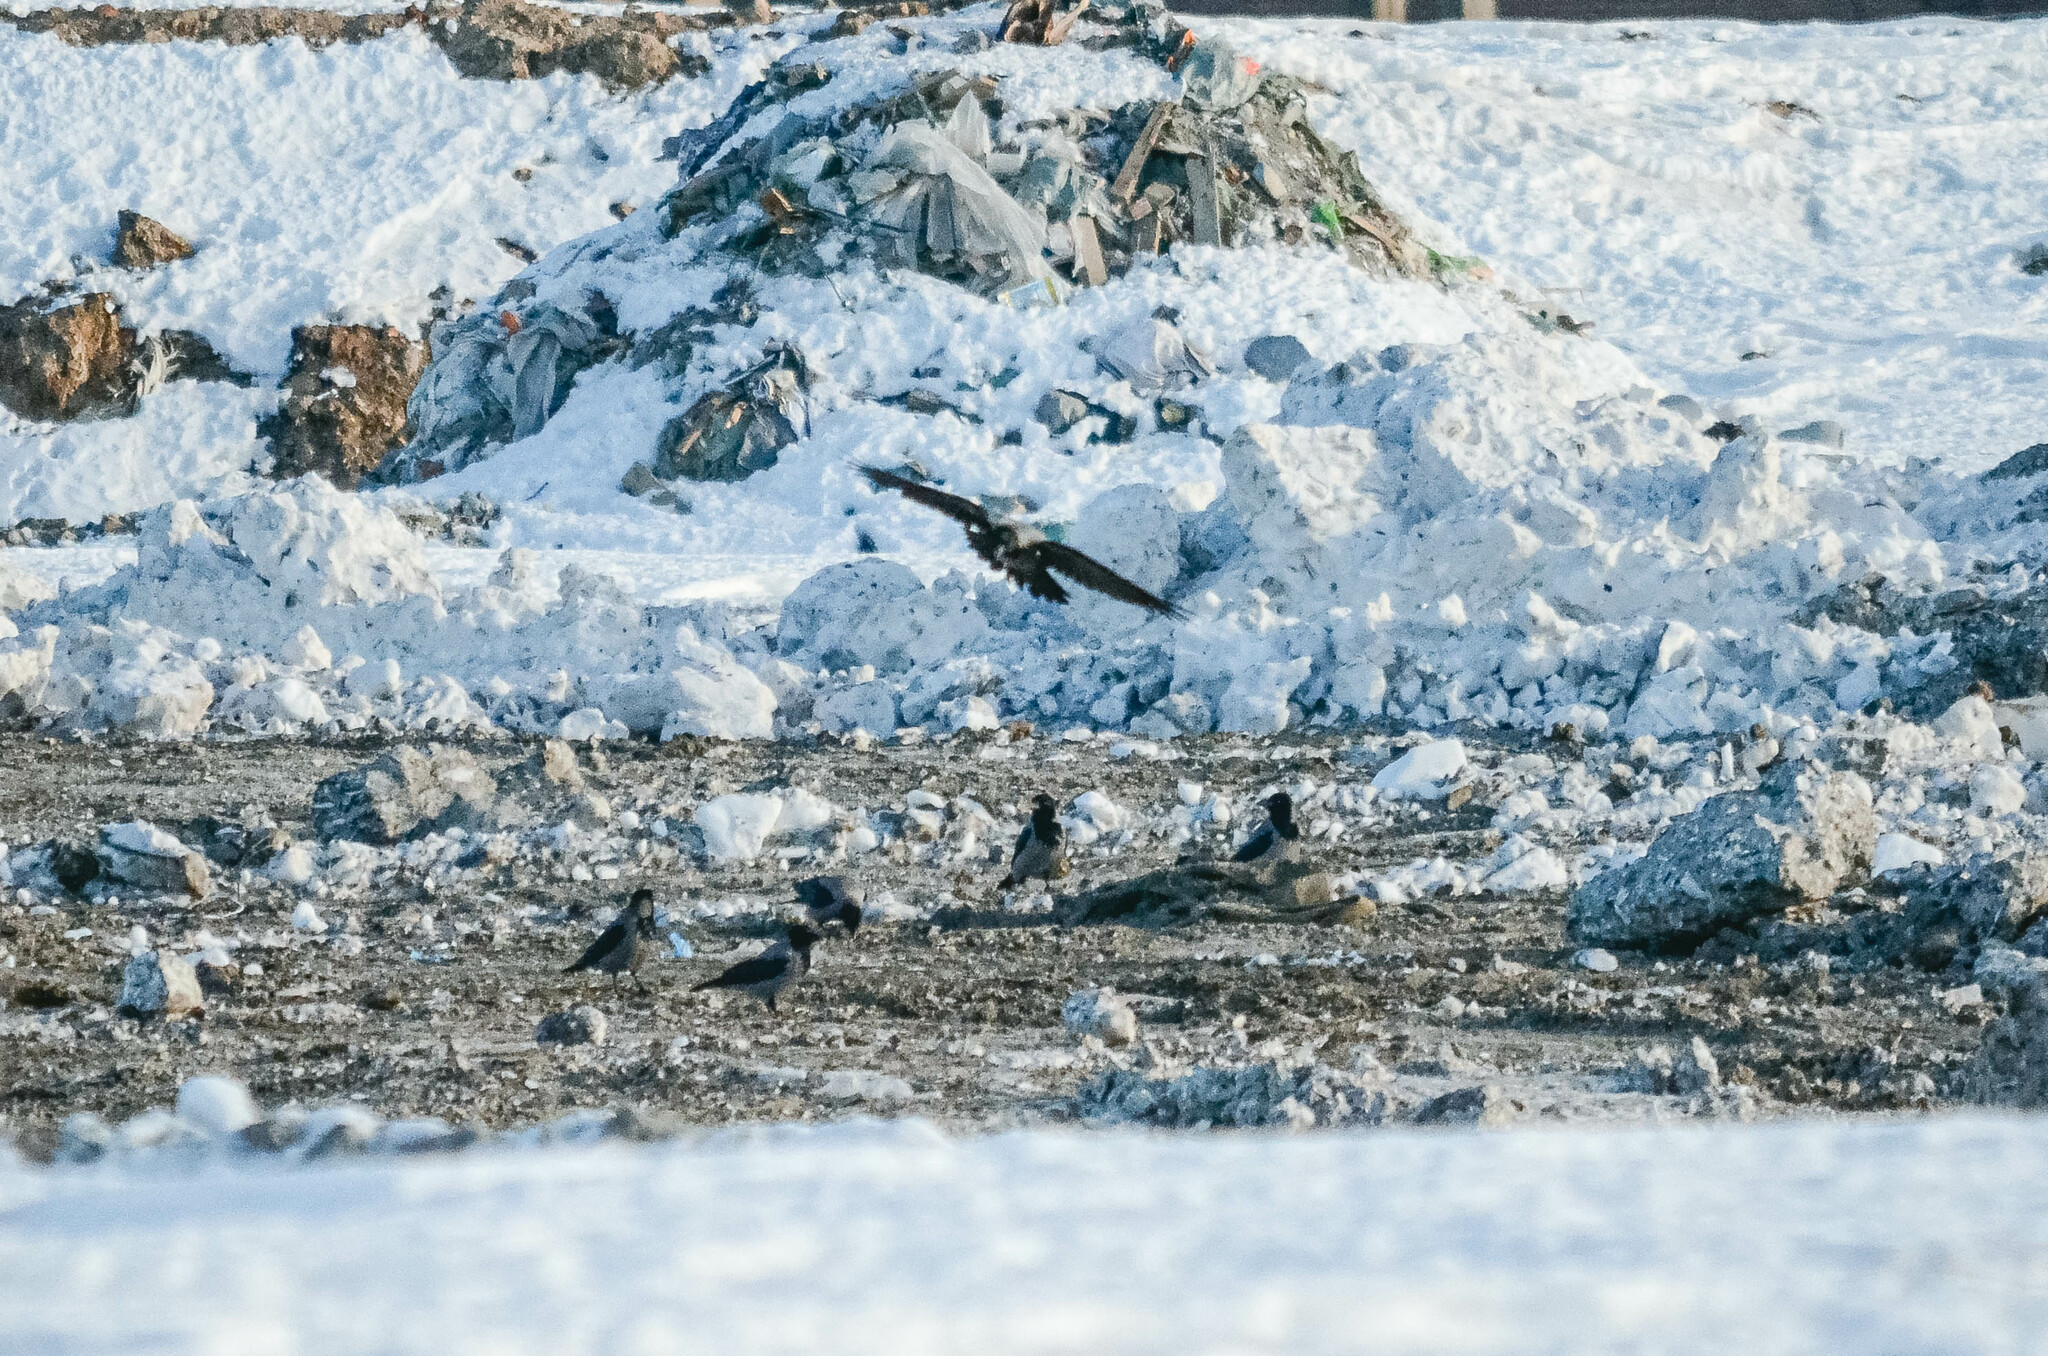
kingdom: Animalia
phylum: Chordata
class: Aves
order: Passeriformes
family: Corvidae
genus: Corvus
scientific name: Corvus cornix
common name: Hooded crow
